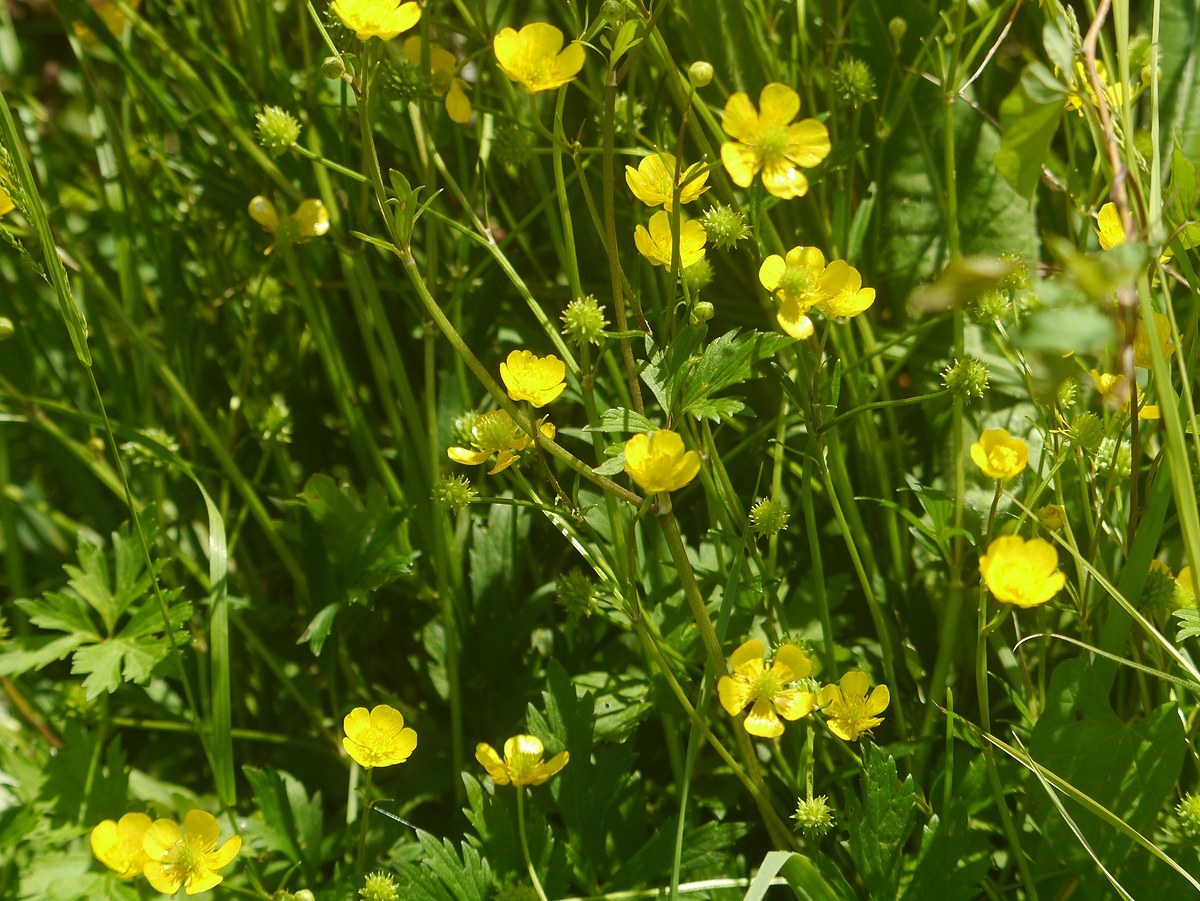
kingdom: Plantae
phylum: Tracheophyta
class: Magnoliopsida
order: Ranunculales
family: Ranunculaceae
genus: Ranunculus
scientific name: Ranunculus repens
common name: Creeping buttercup
